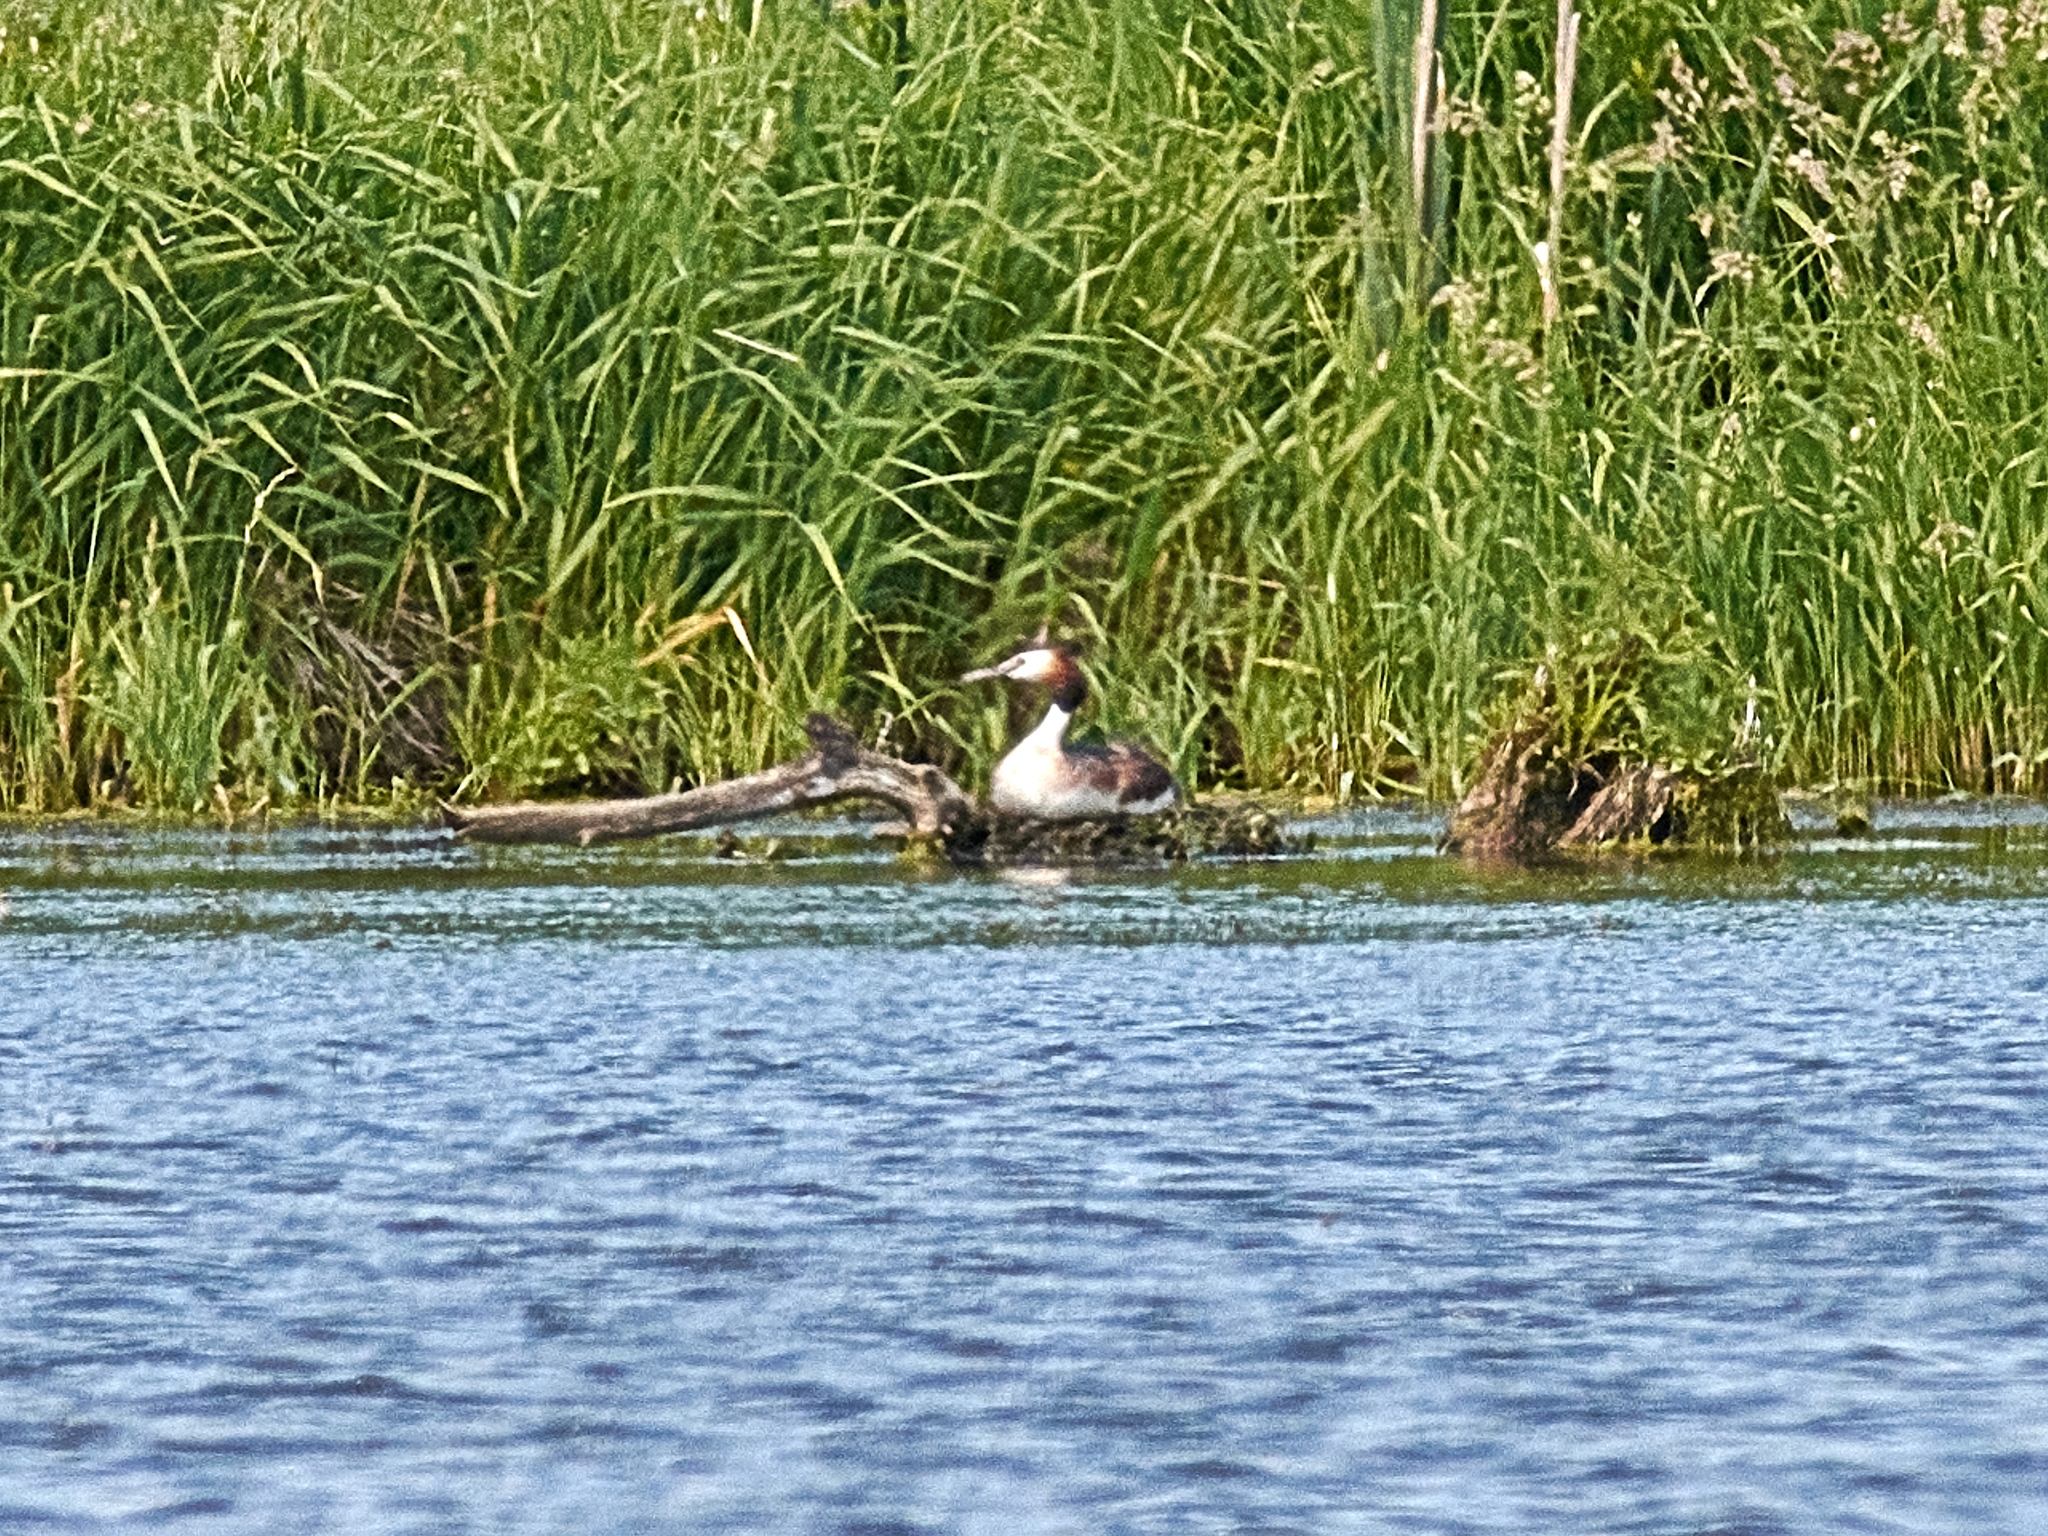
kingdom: Animalia
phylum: Chordata
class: Aves
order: Podicipediformes
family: Podicipedidae
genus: Podiceps
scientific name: Podiceps cristatus
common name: Great crested grebe
